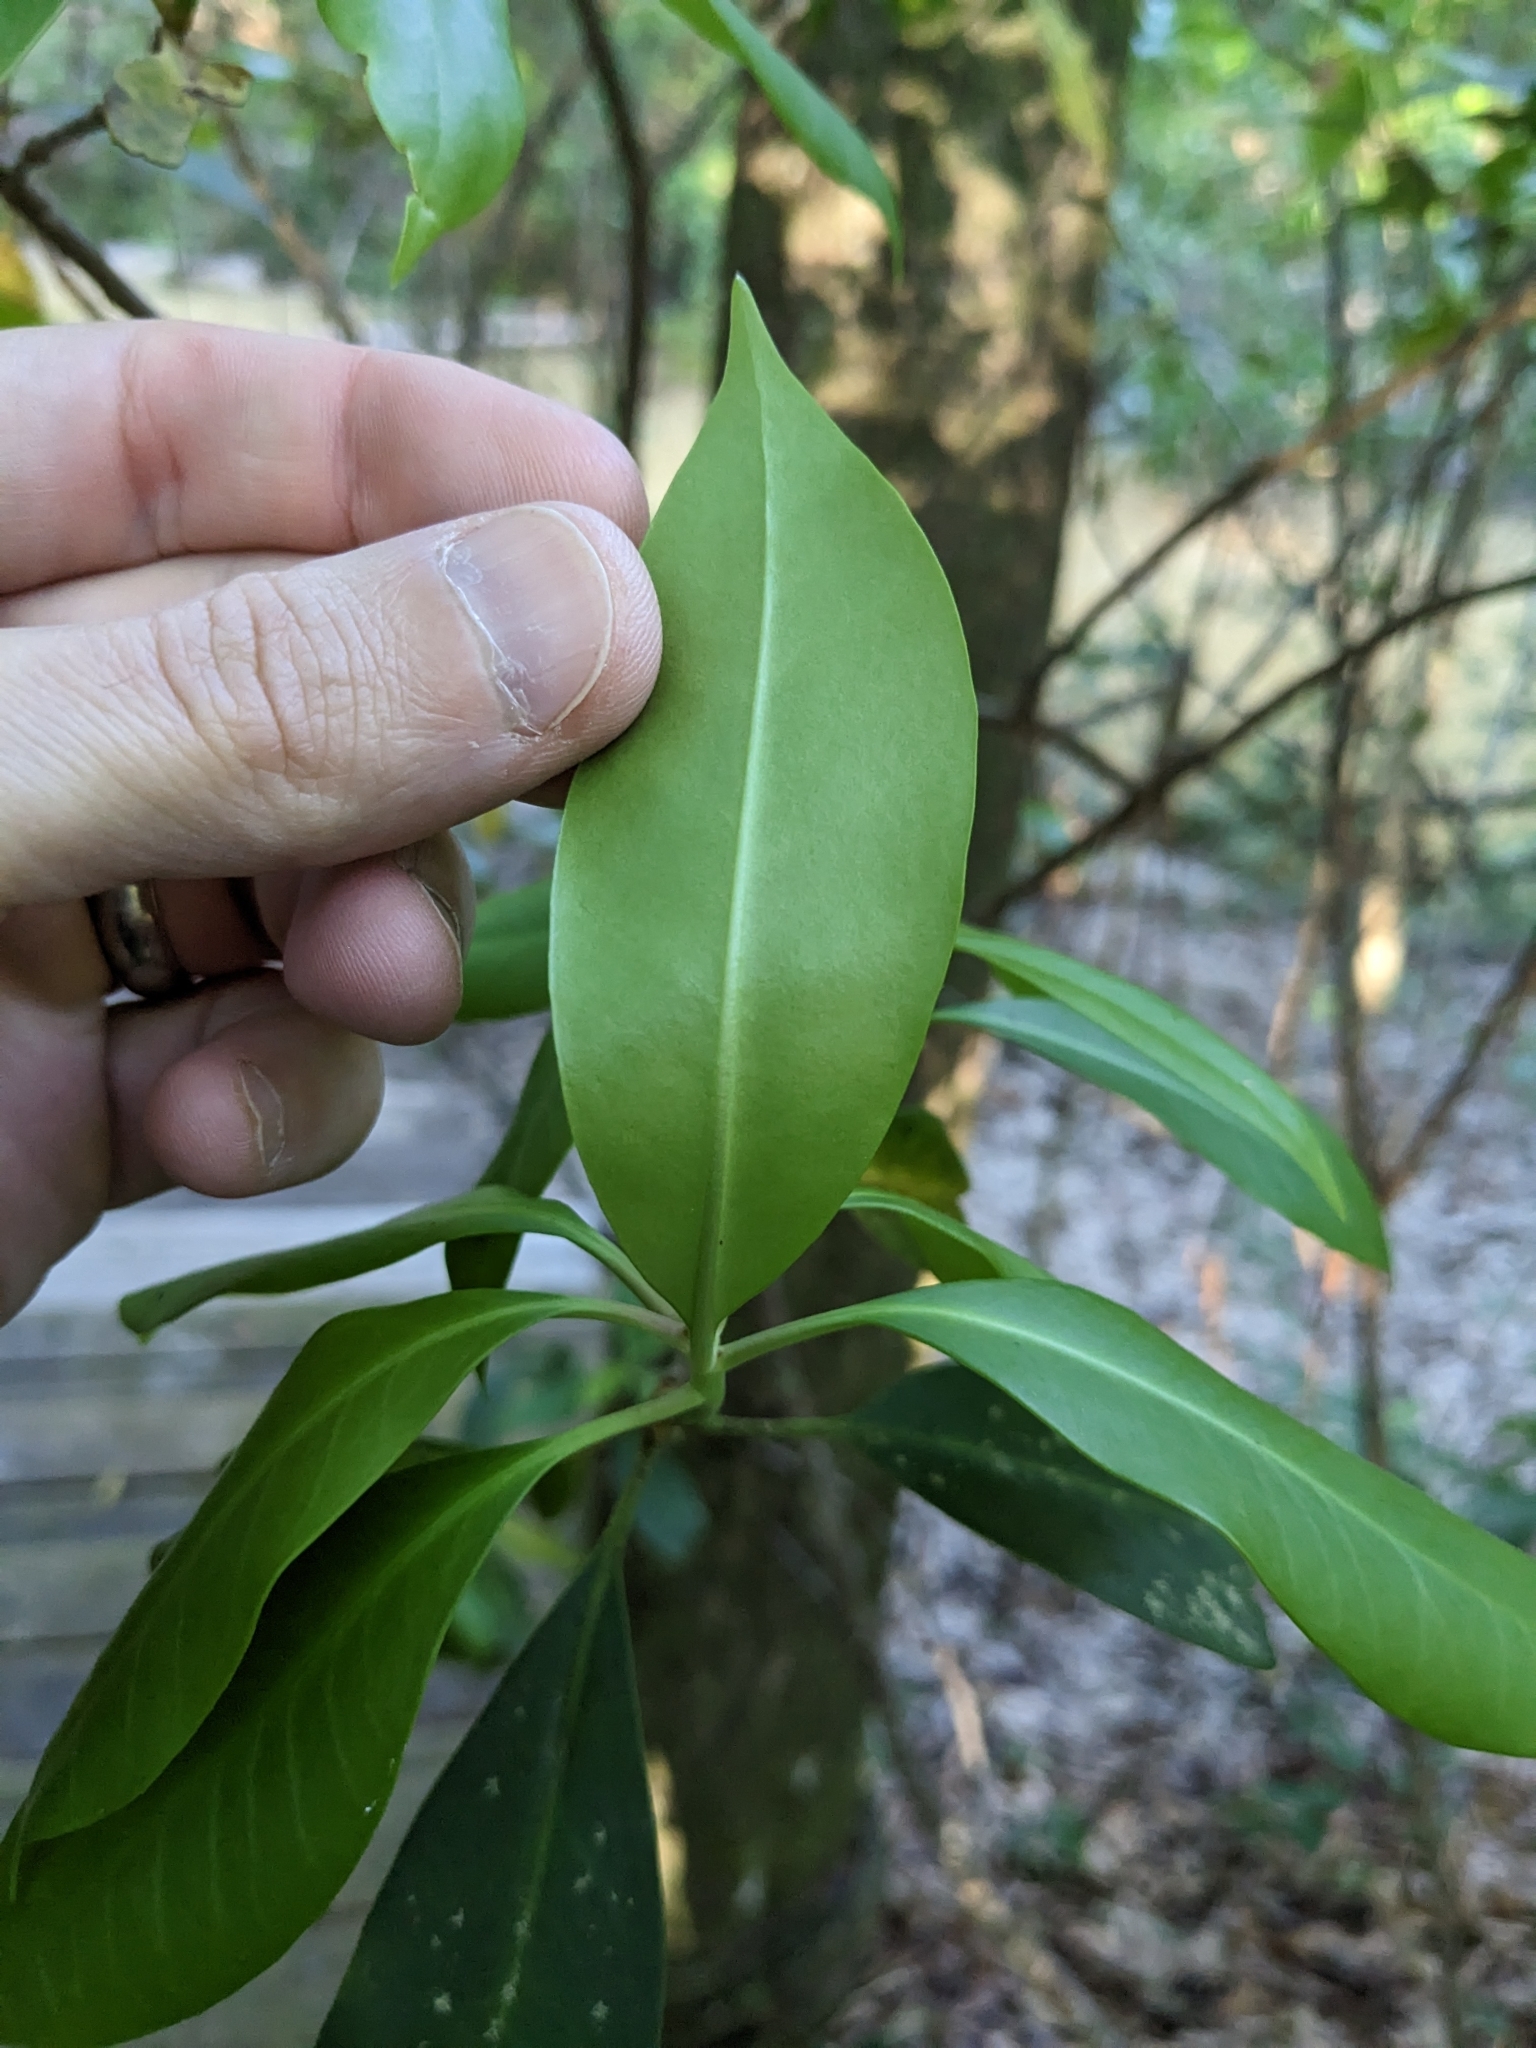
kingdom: Plantae
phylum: Tracheophyta
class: Magnoliopsida
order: Austrobaileyales
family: Schisandraceae
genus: Illicium
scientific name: Illicium floridanum
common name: Florida anisetree
